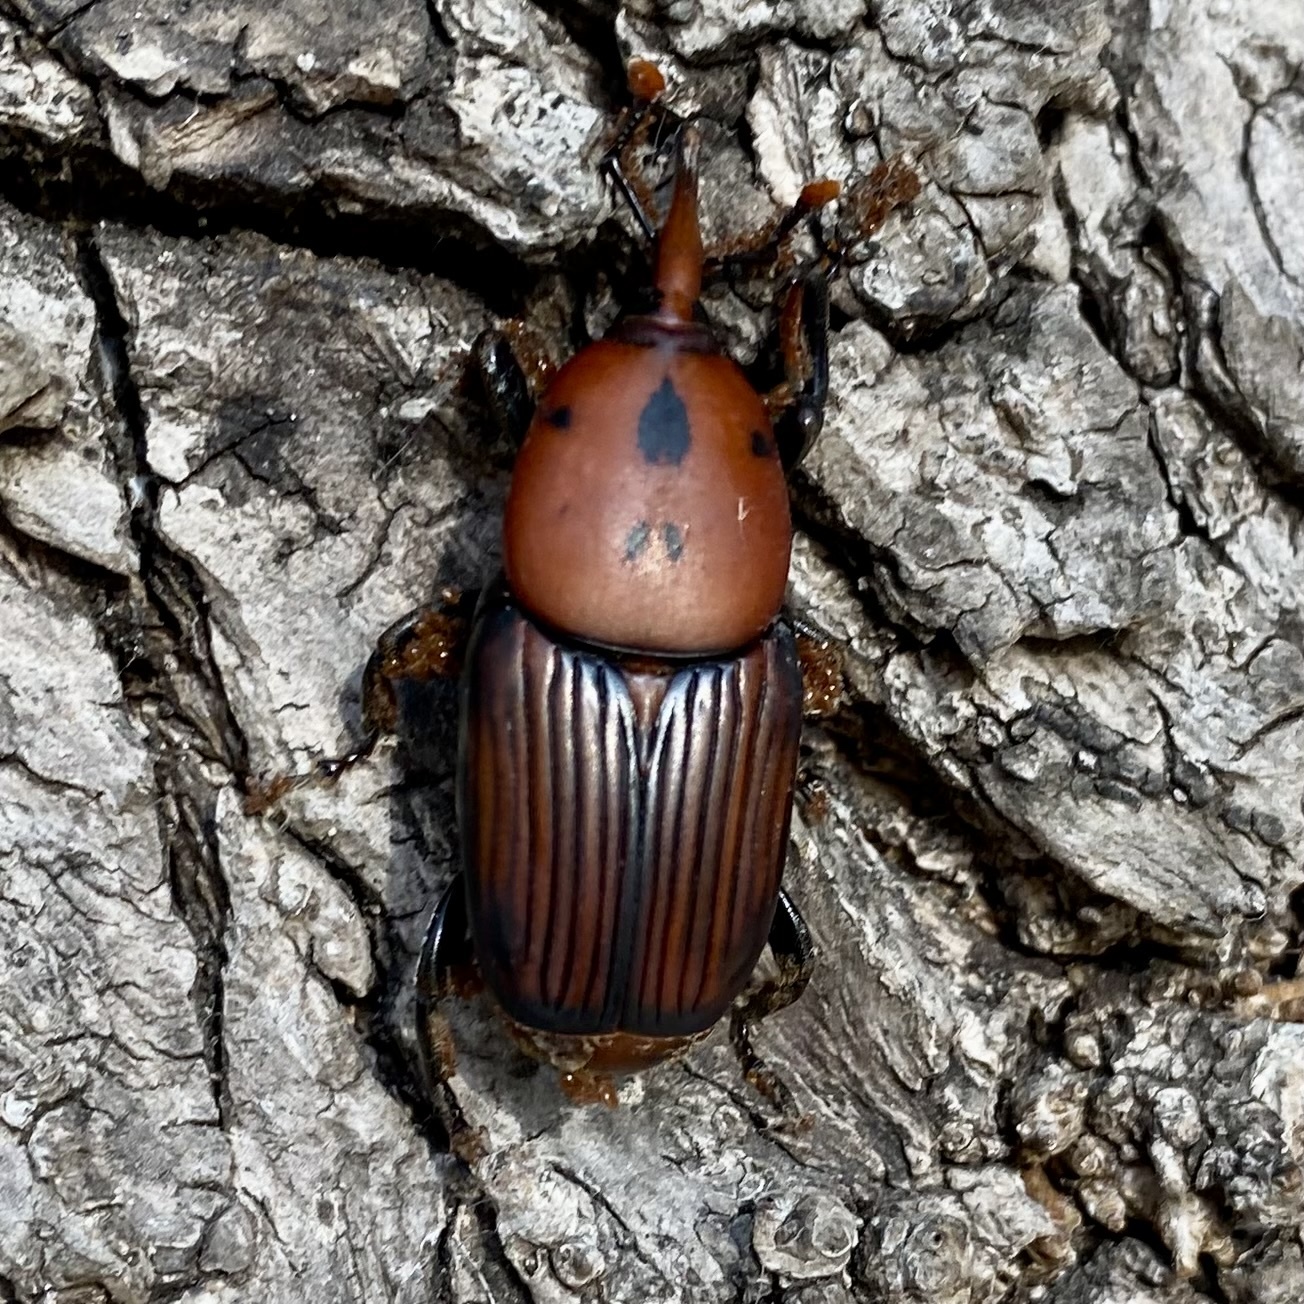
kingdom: Animalia
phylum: Arthropoda
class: Insecta
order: Coleoptera
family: Dryophthoridae
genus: Rhynchophorus
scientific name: Rhynchophorus ferrugineus
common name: Red palm weevil
